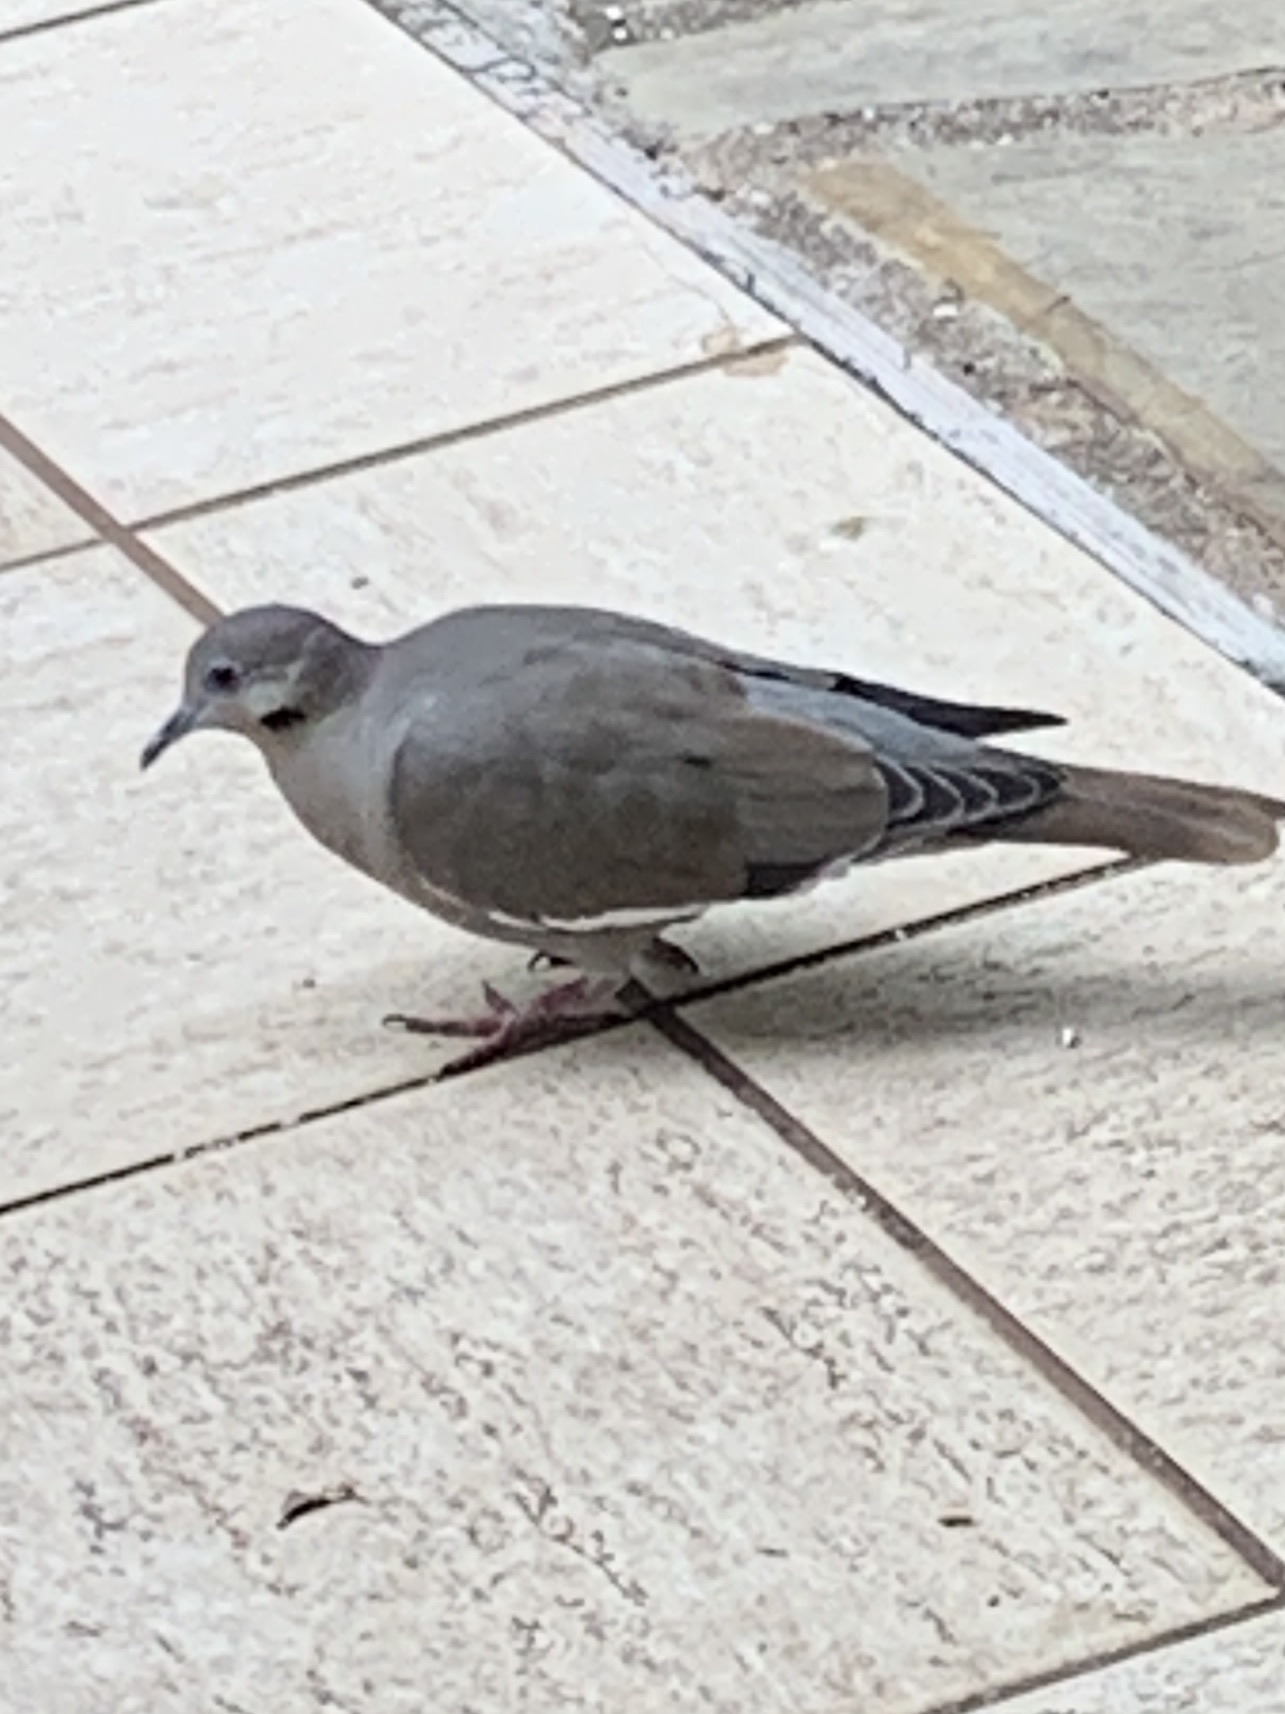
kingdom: Animalia
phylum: Chordata
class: Aves
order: Columbiformes
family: Columbidae
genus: Zenaida
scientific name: Zenaida asiatica
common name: White-winged dove
